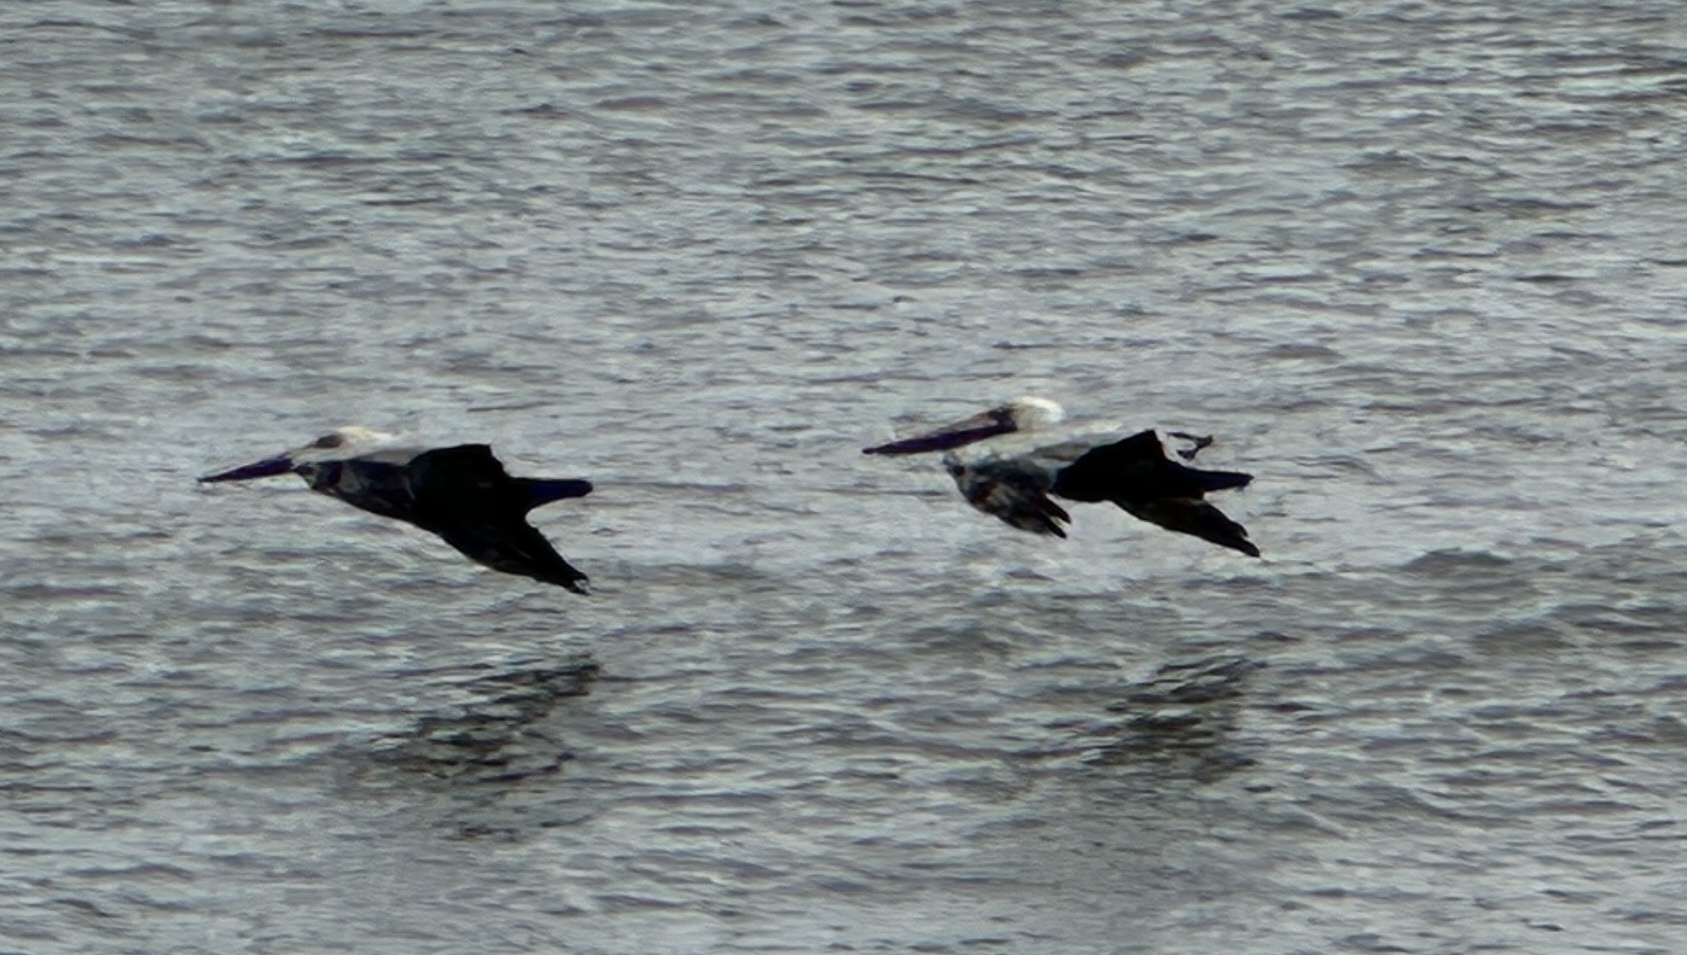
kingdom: Animalia
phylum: Chordata
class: Aves
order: Pelecaniformes
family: Pelecanidae
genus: Pelecanus
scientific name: Pelecanus occidentalis
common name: Brown pelican
